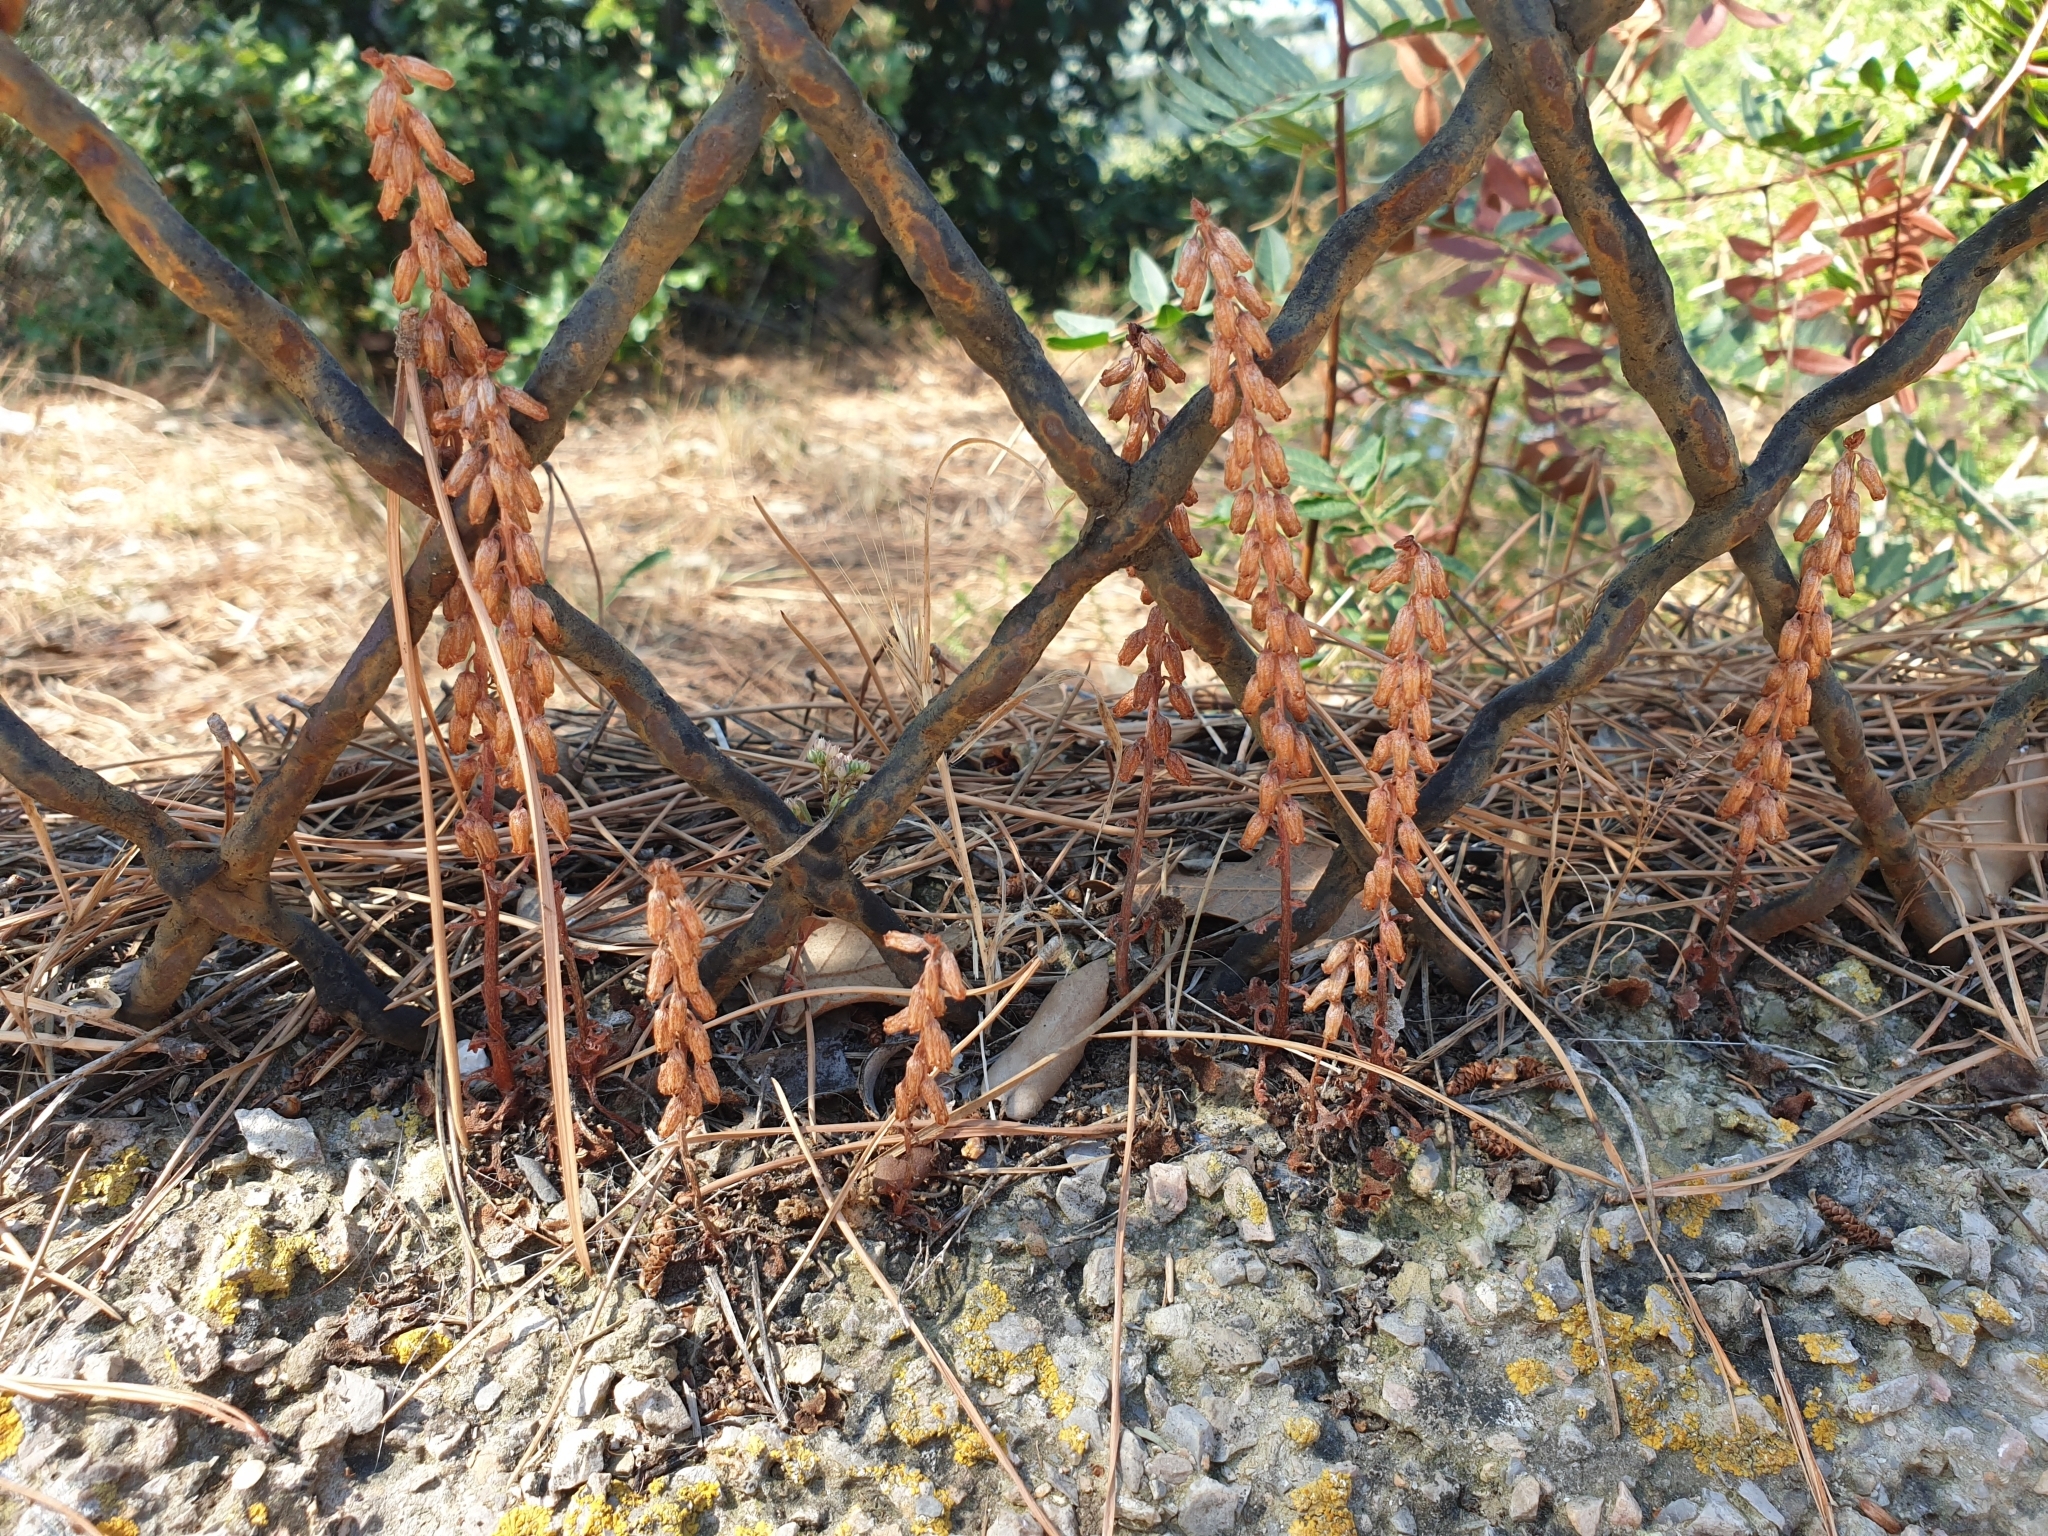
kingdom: Plantae
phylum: Tracheophyta
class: Magnoliopsida
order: Saxifragales
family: Crassulaceae
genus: Umbilicus
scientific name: Umbilicus rupestris
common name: Navelwort
